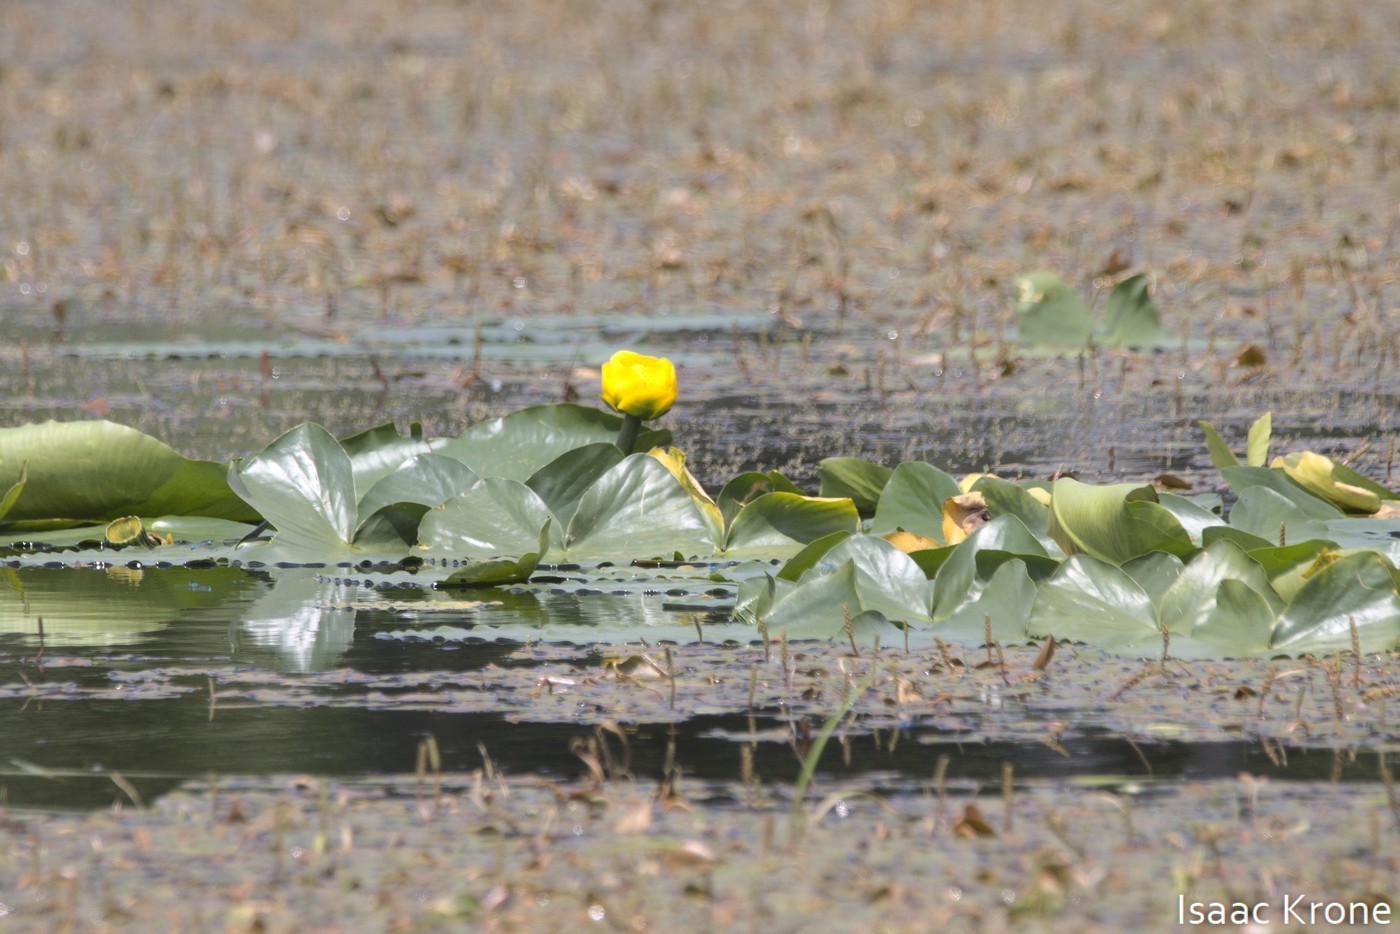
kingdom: Plantae
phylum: Tracheophyta
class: Magnoliopsida
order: Nymphaeales
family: Nymphaeaceae
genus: Nuphar
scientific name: Nuphar polysepala
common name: Rocky mountain cow-lily
